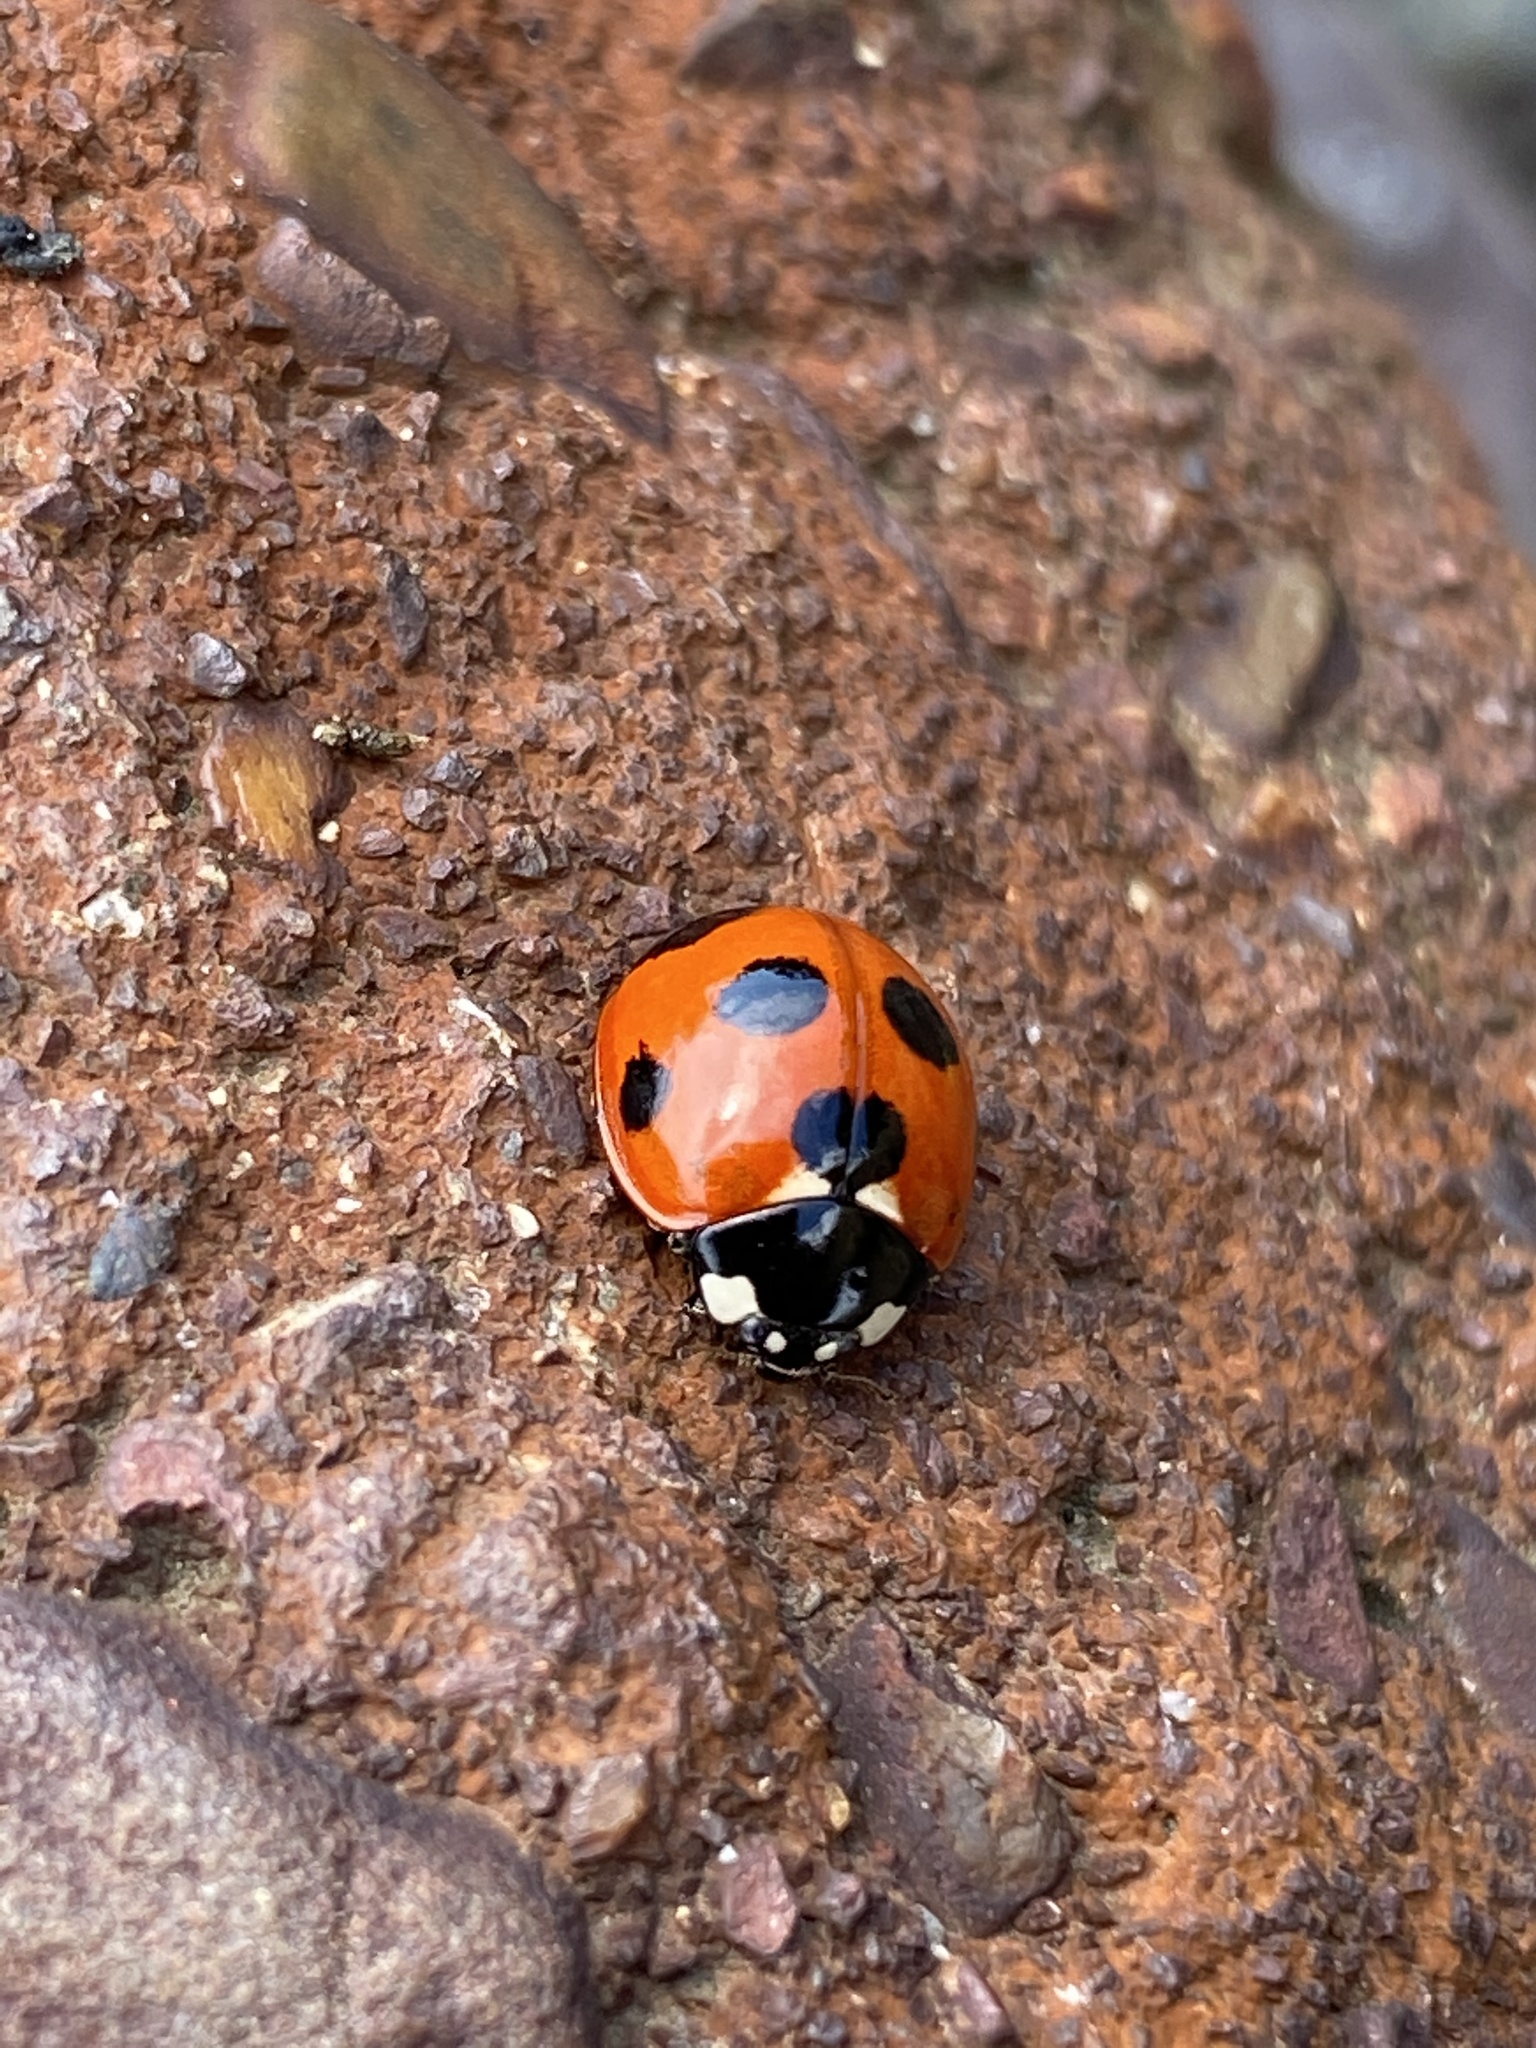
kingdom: Animalia
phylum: Arthropoda
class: Insecta
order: Coleoptera
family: Coccinellidae
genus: Coccinella
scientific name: Coccinella septempunctata
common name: Sevenspotted lady beetle
